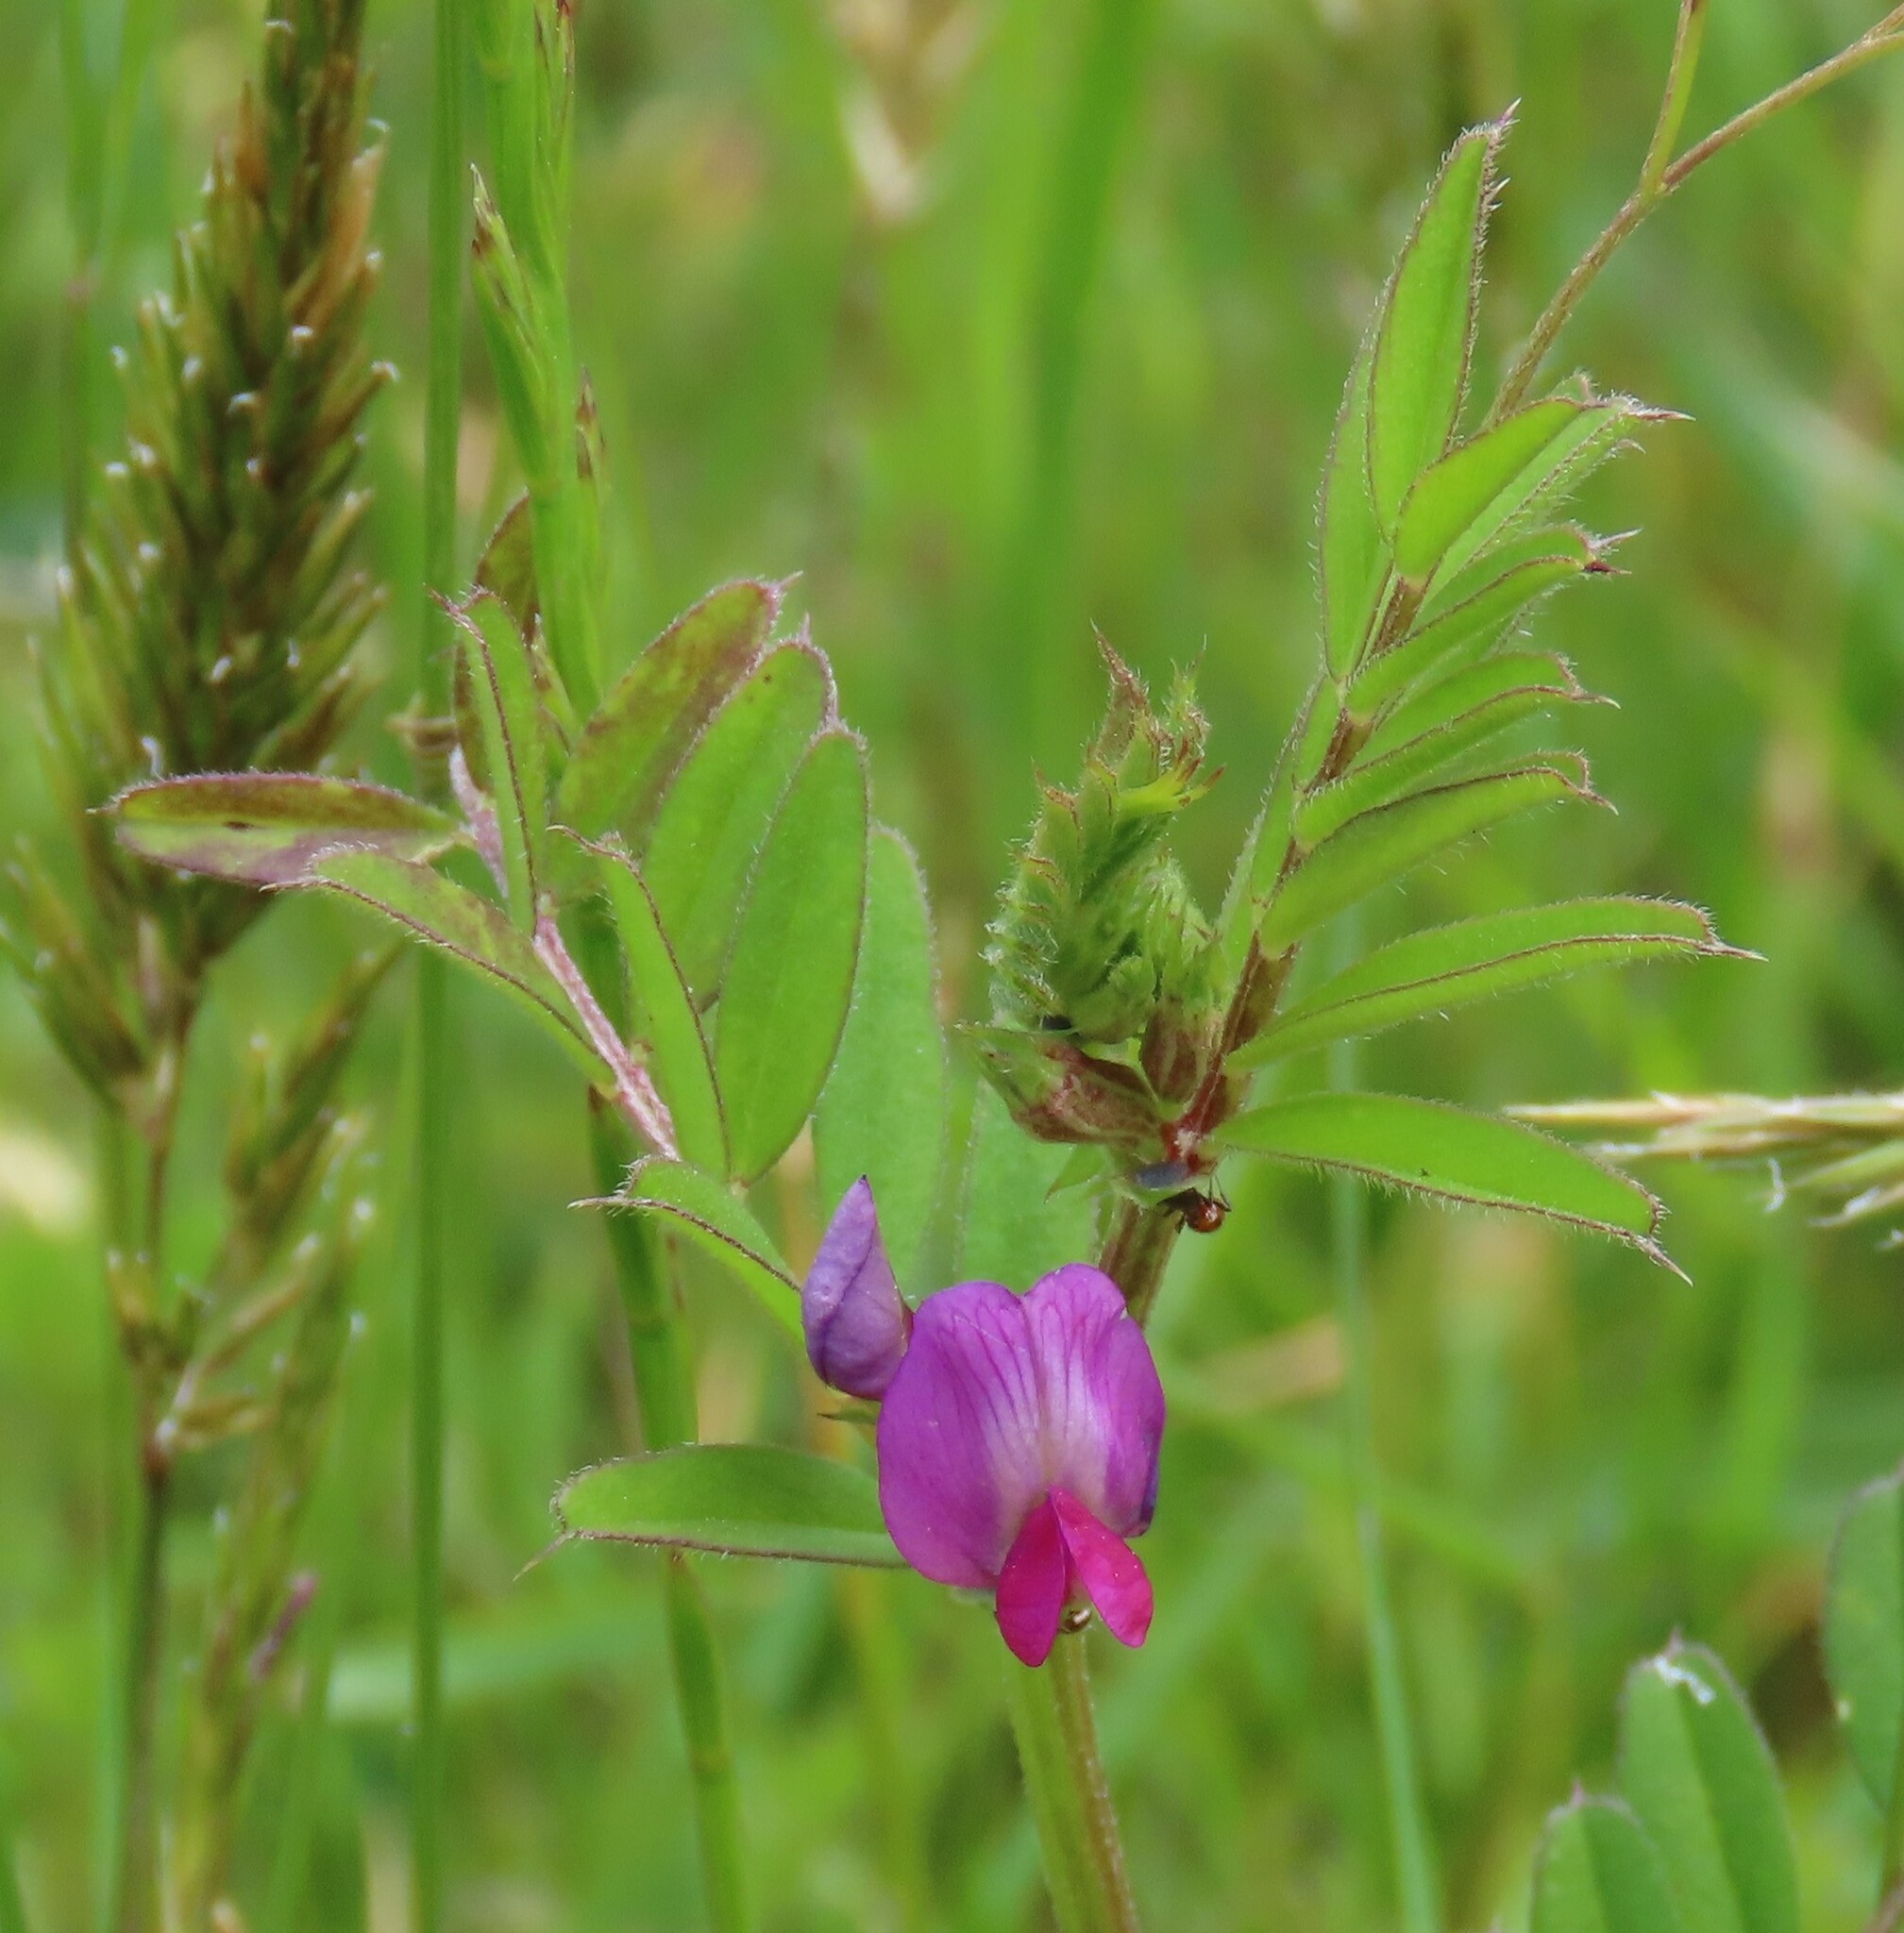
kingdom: Plantae
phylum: Tracheophyta
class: Magnoliopsida
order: Fabales
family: Fabaceae
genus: Vicia
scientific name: Vicia sativa
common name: Garden vetch
